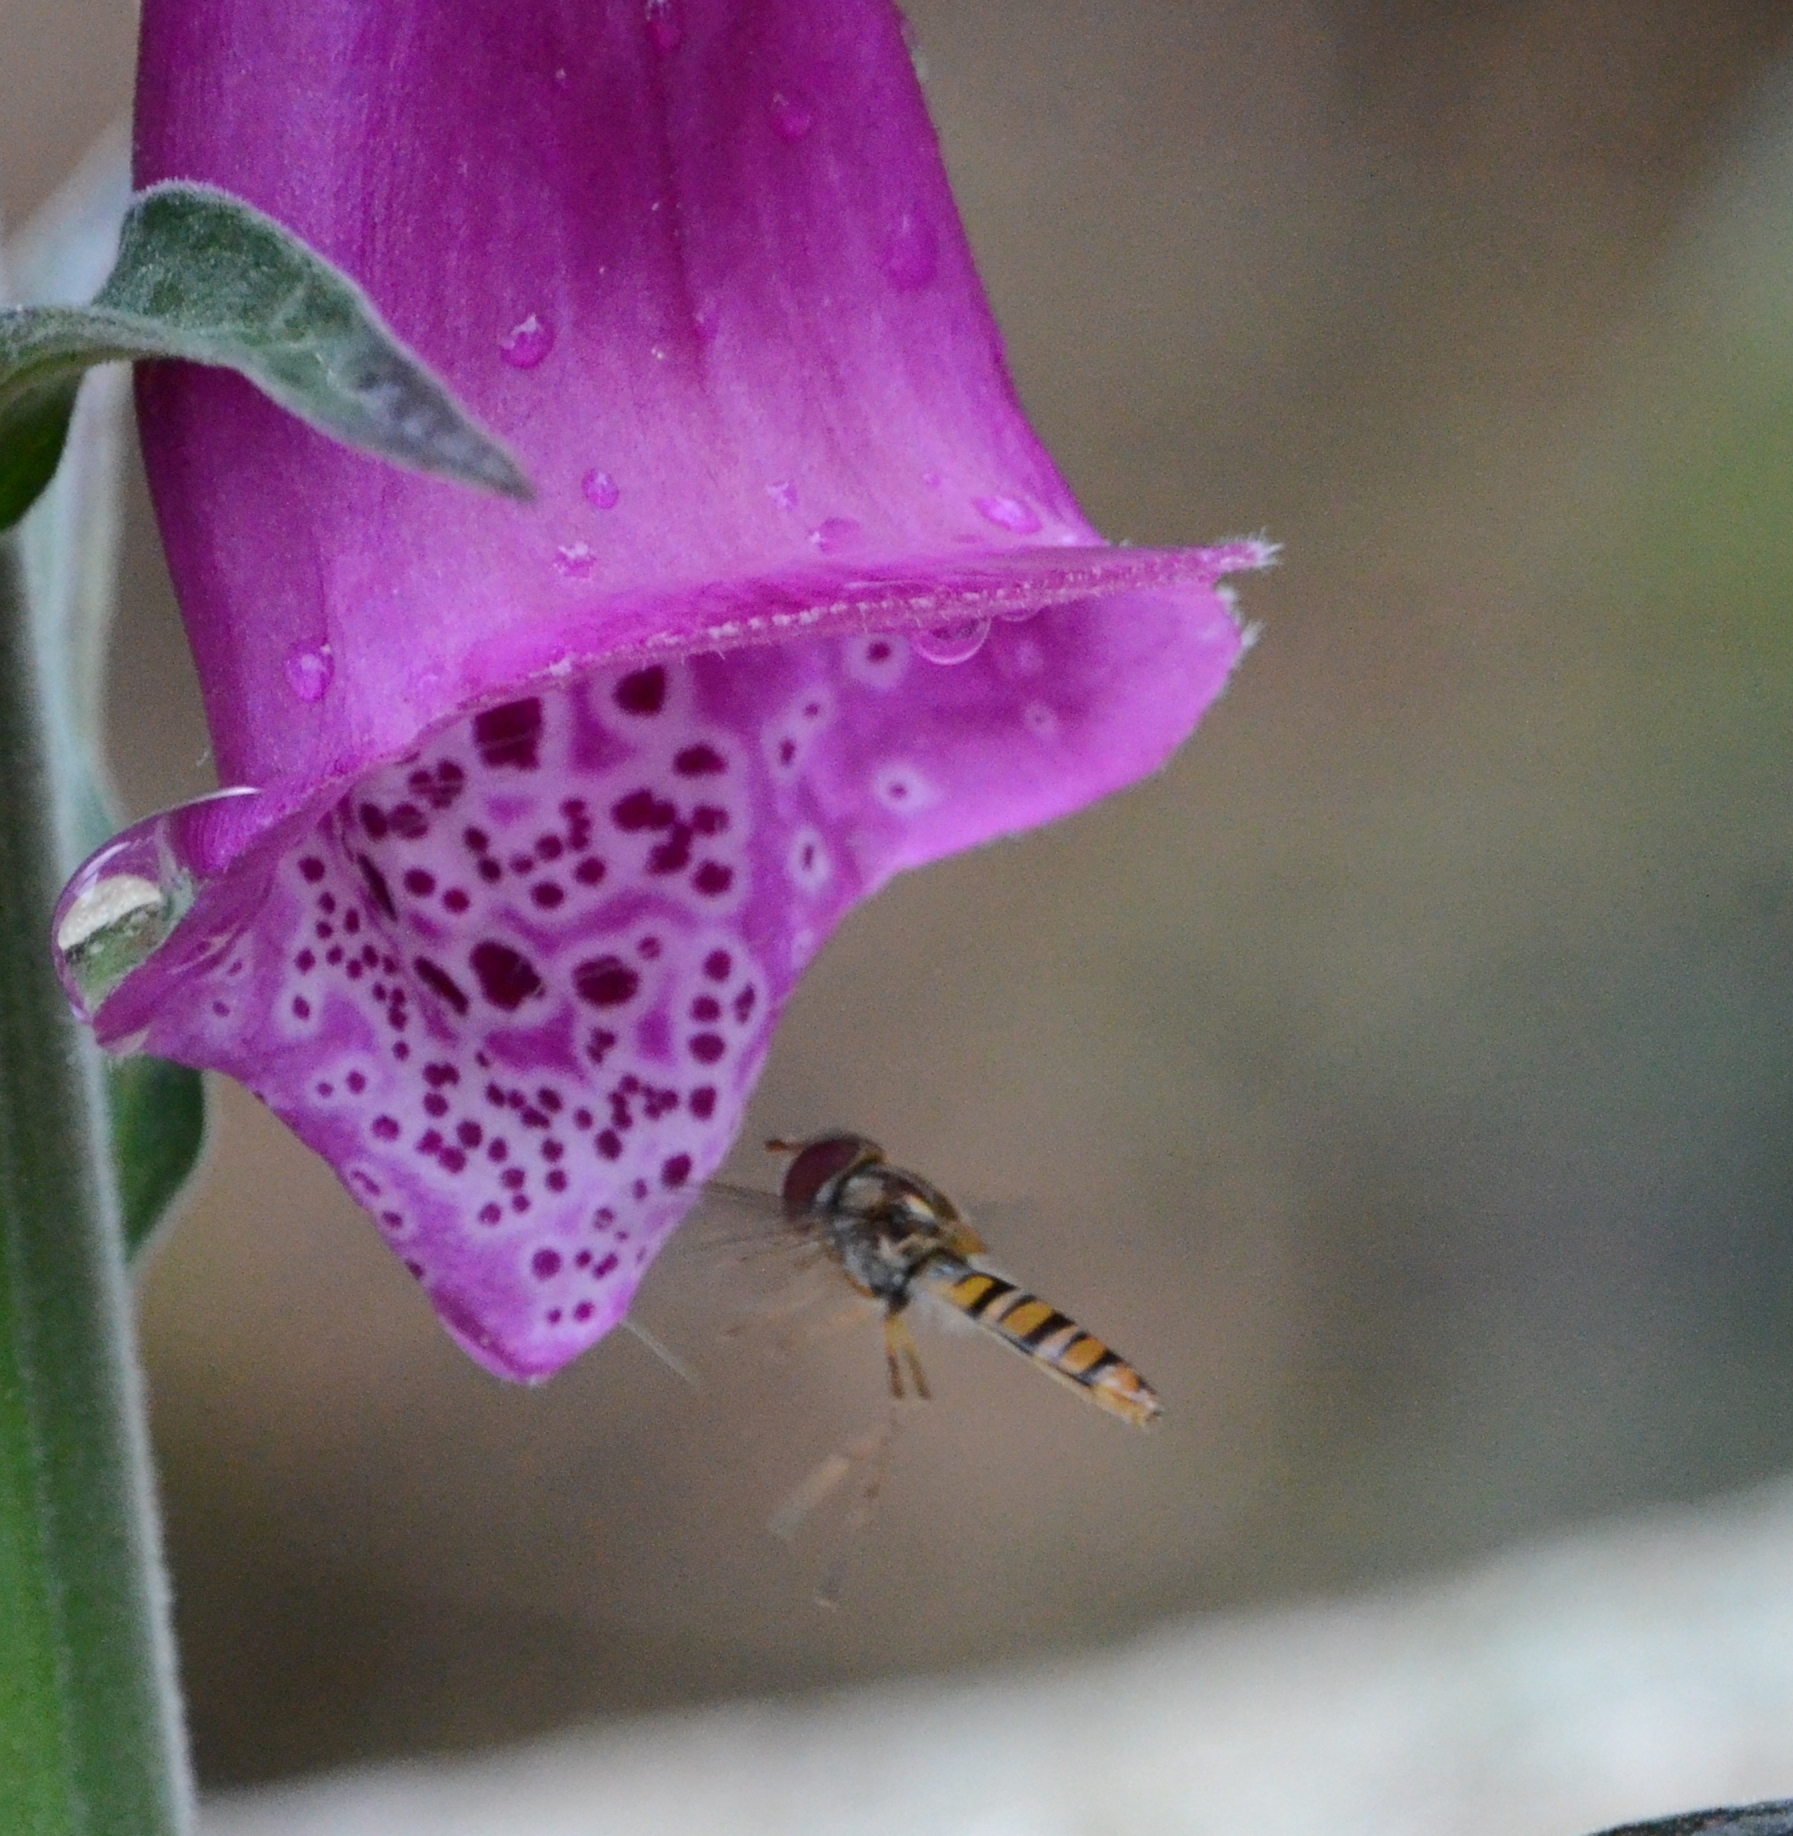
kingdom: Animalia
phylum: Arthropoda
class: Insecta
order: Diptera
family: Syrphidae
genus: Episyrphus
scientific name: Episyrphus balteatus
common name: Marmalade hoverfly
